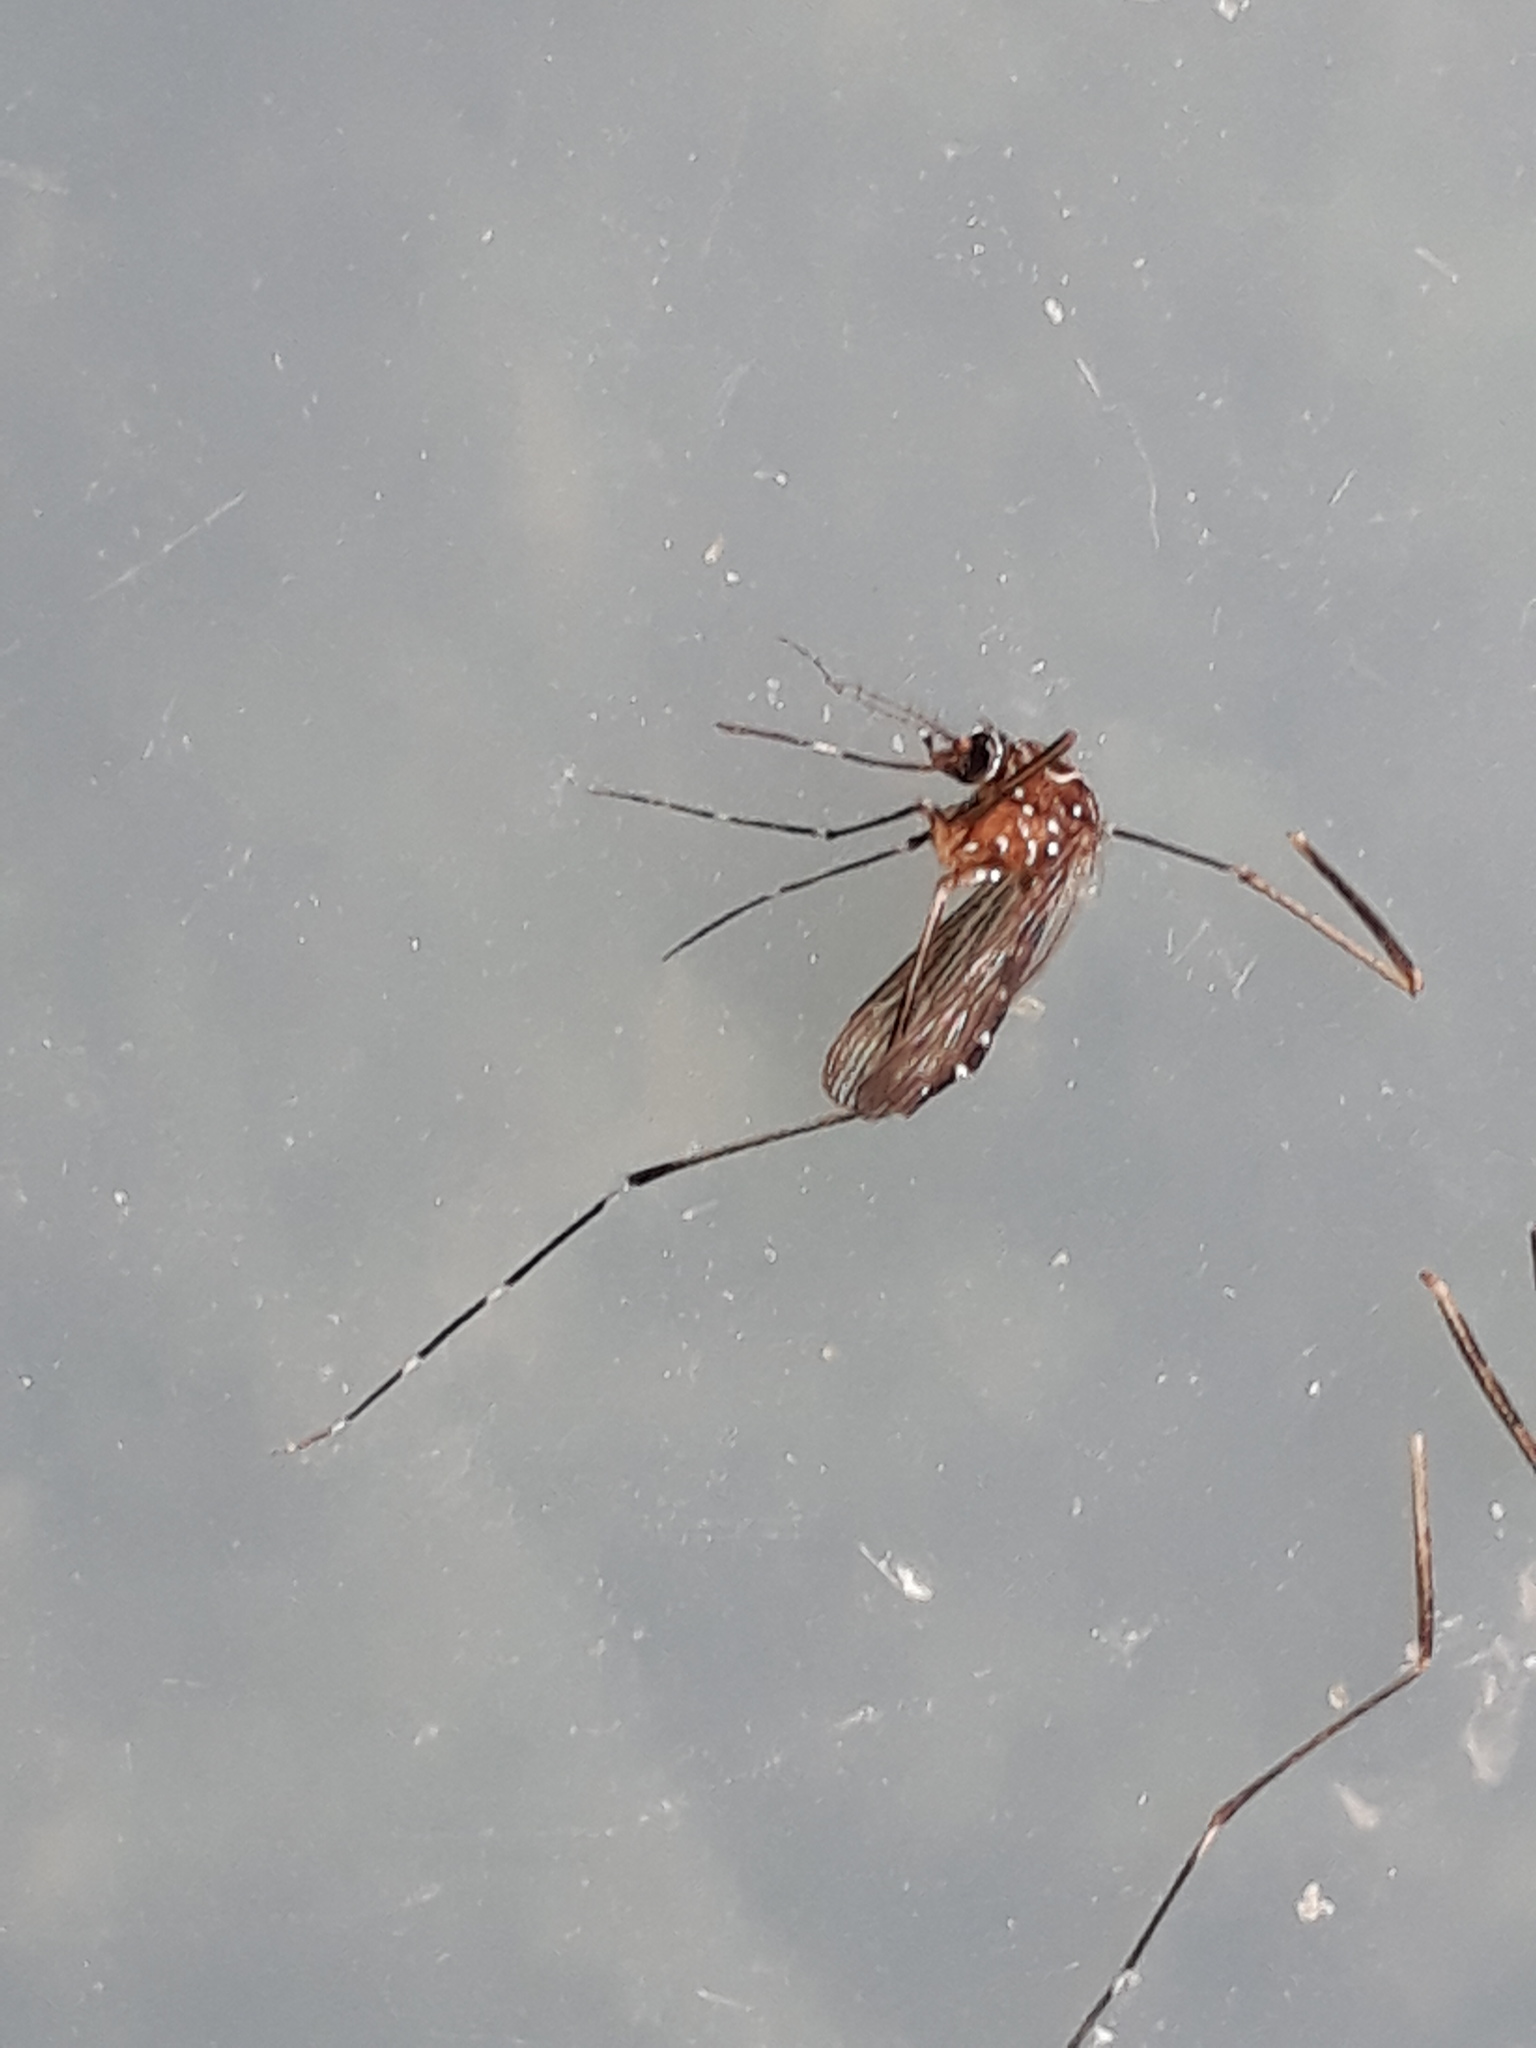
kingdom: Animalia
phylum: Arthropoda
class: Insecta
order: Diptera
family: Culicidae
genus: Aedes
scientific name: Aedes notoscriptus
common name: Australian backyard mosquito
